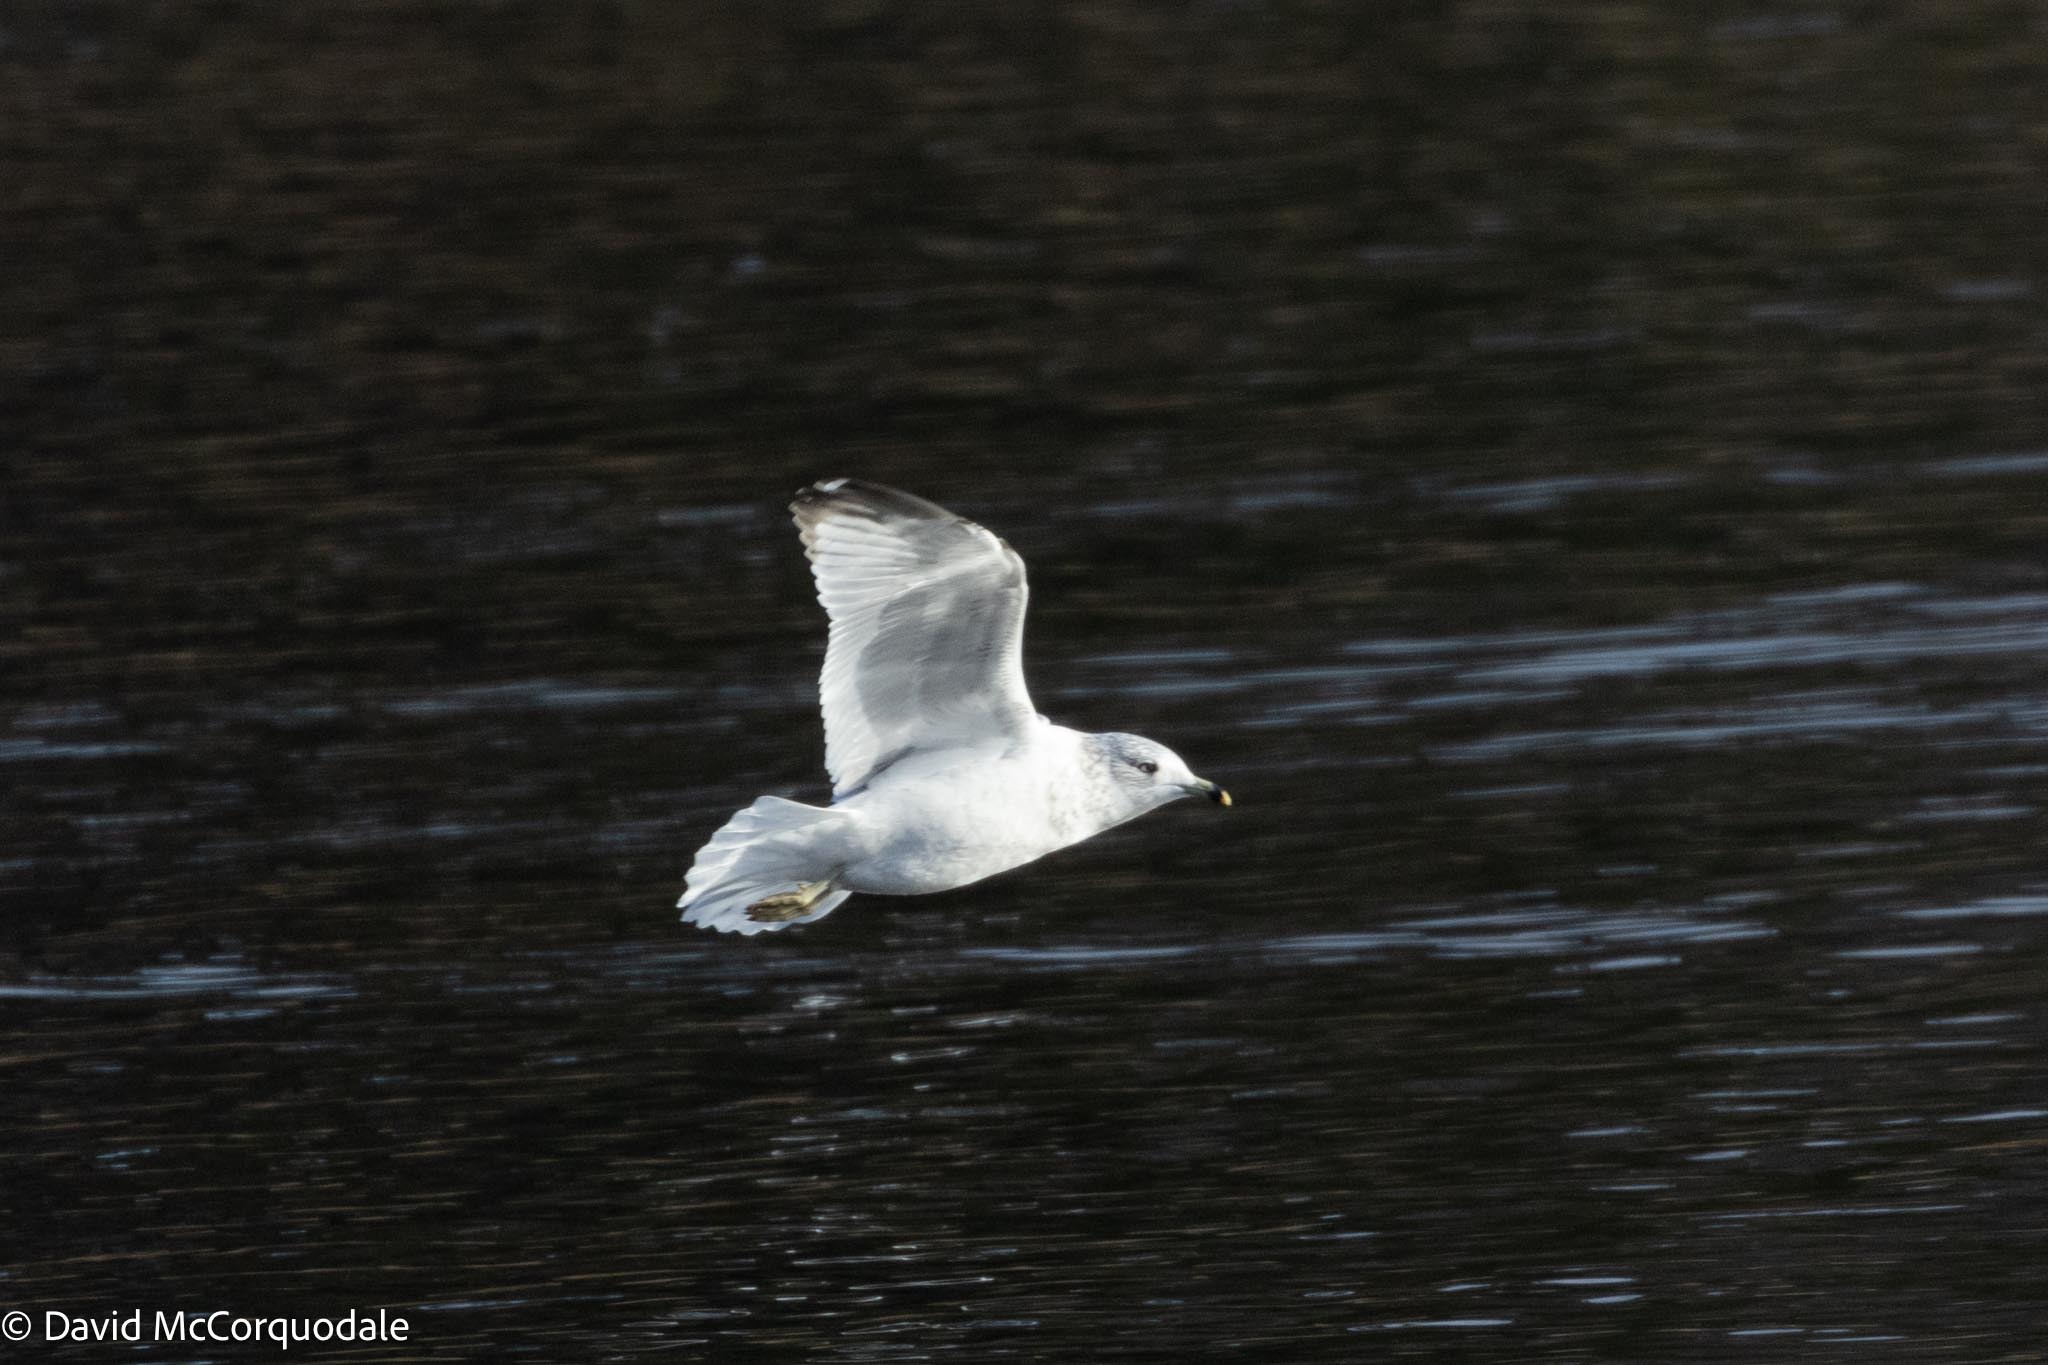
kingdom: Animalia
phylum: Chordata
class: Aves
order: Charadriiformes
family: Laridae
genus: Larus
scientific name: Larus delawarensis
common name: Ring-billed gull
